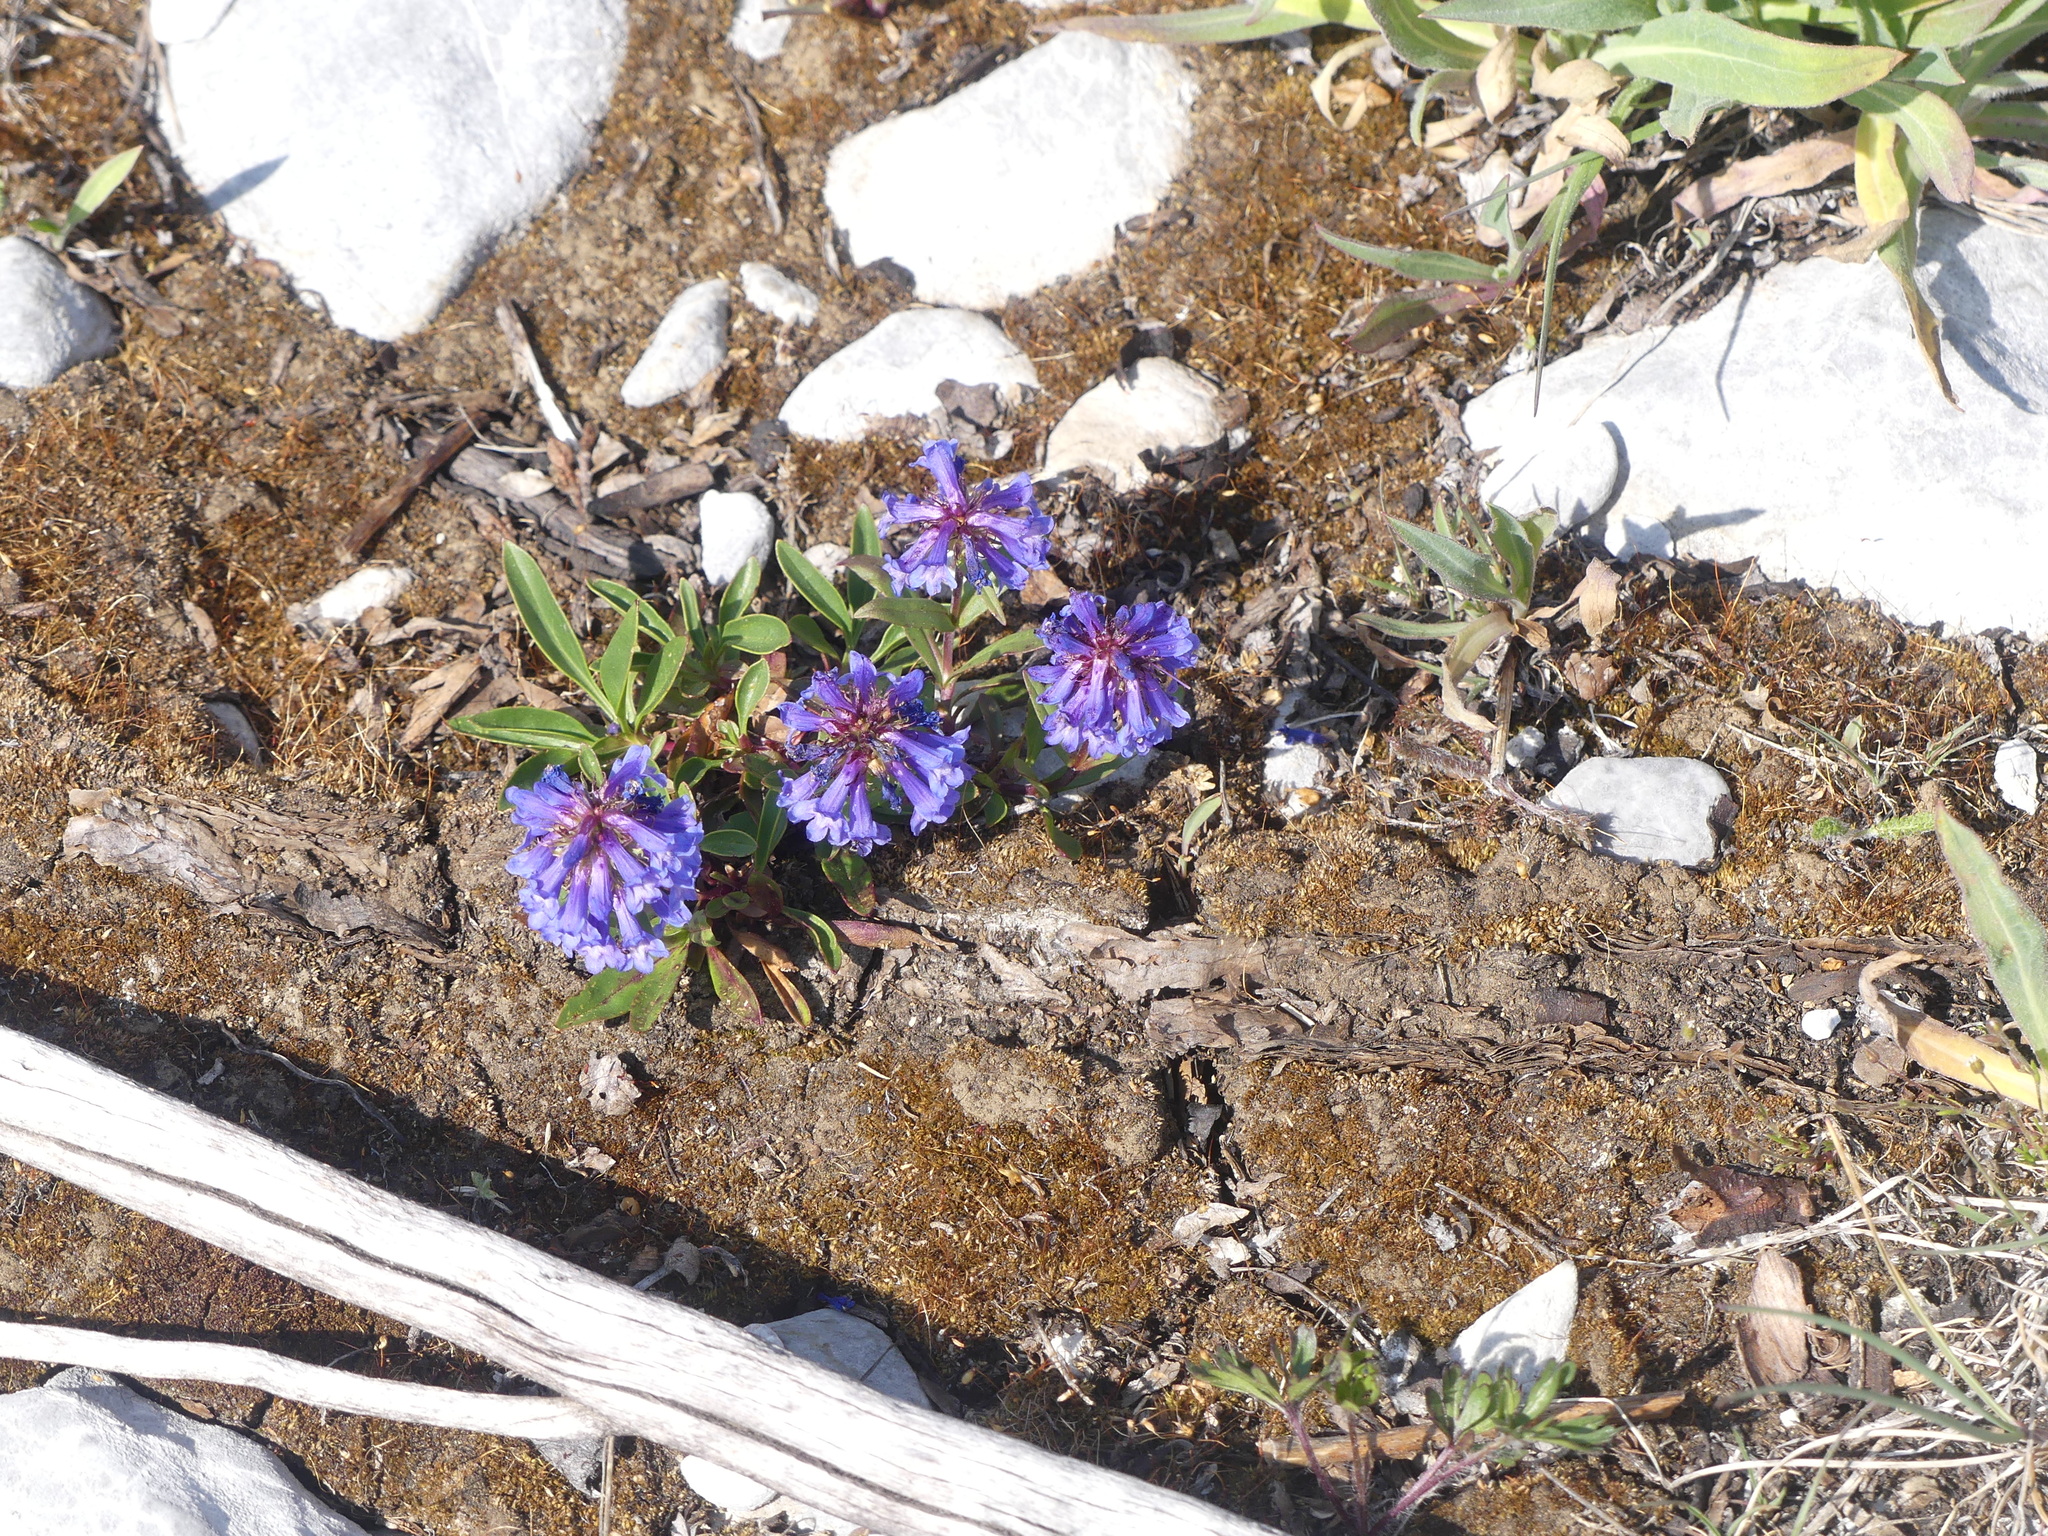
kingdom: Plantae
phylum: Tracheophyta
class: Magnoliopsida
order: Lamiales
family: Plantaginaceae
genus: Penstemon
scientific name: Penstemon procerus
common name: Small-flower penstemon
